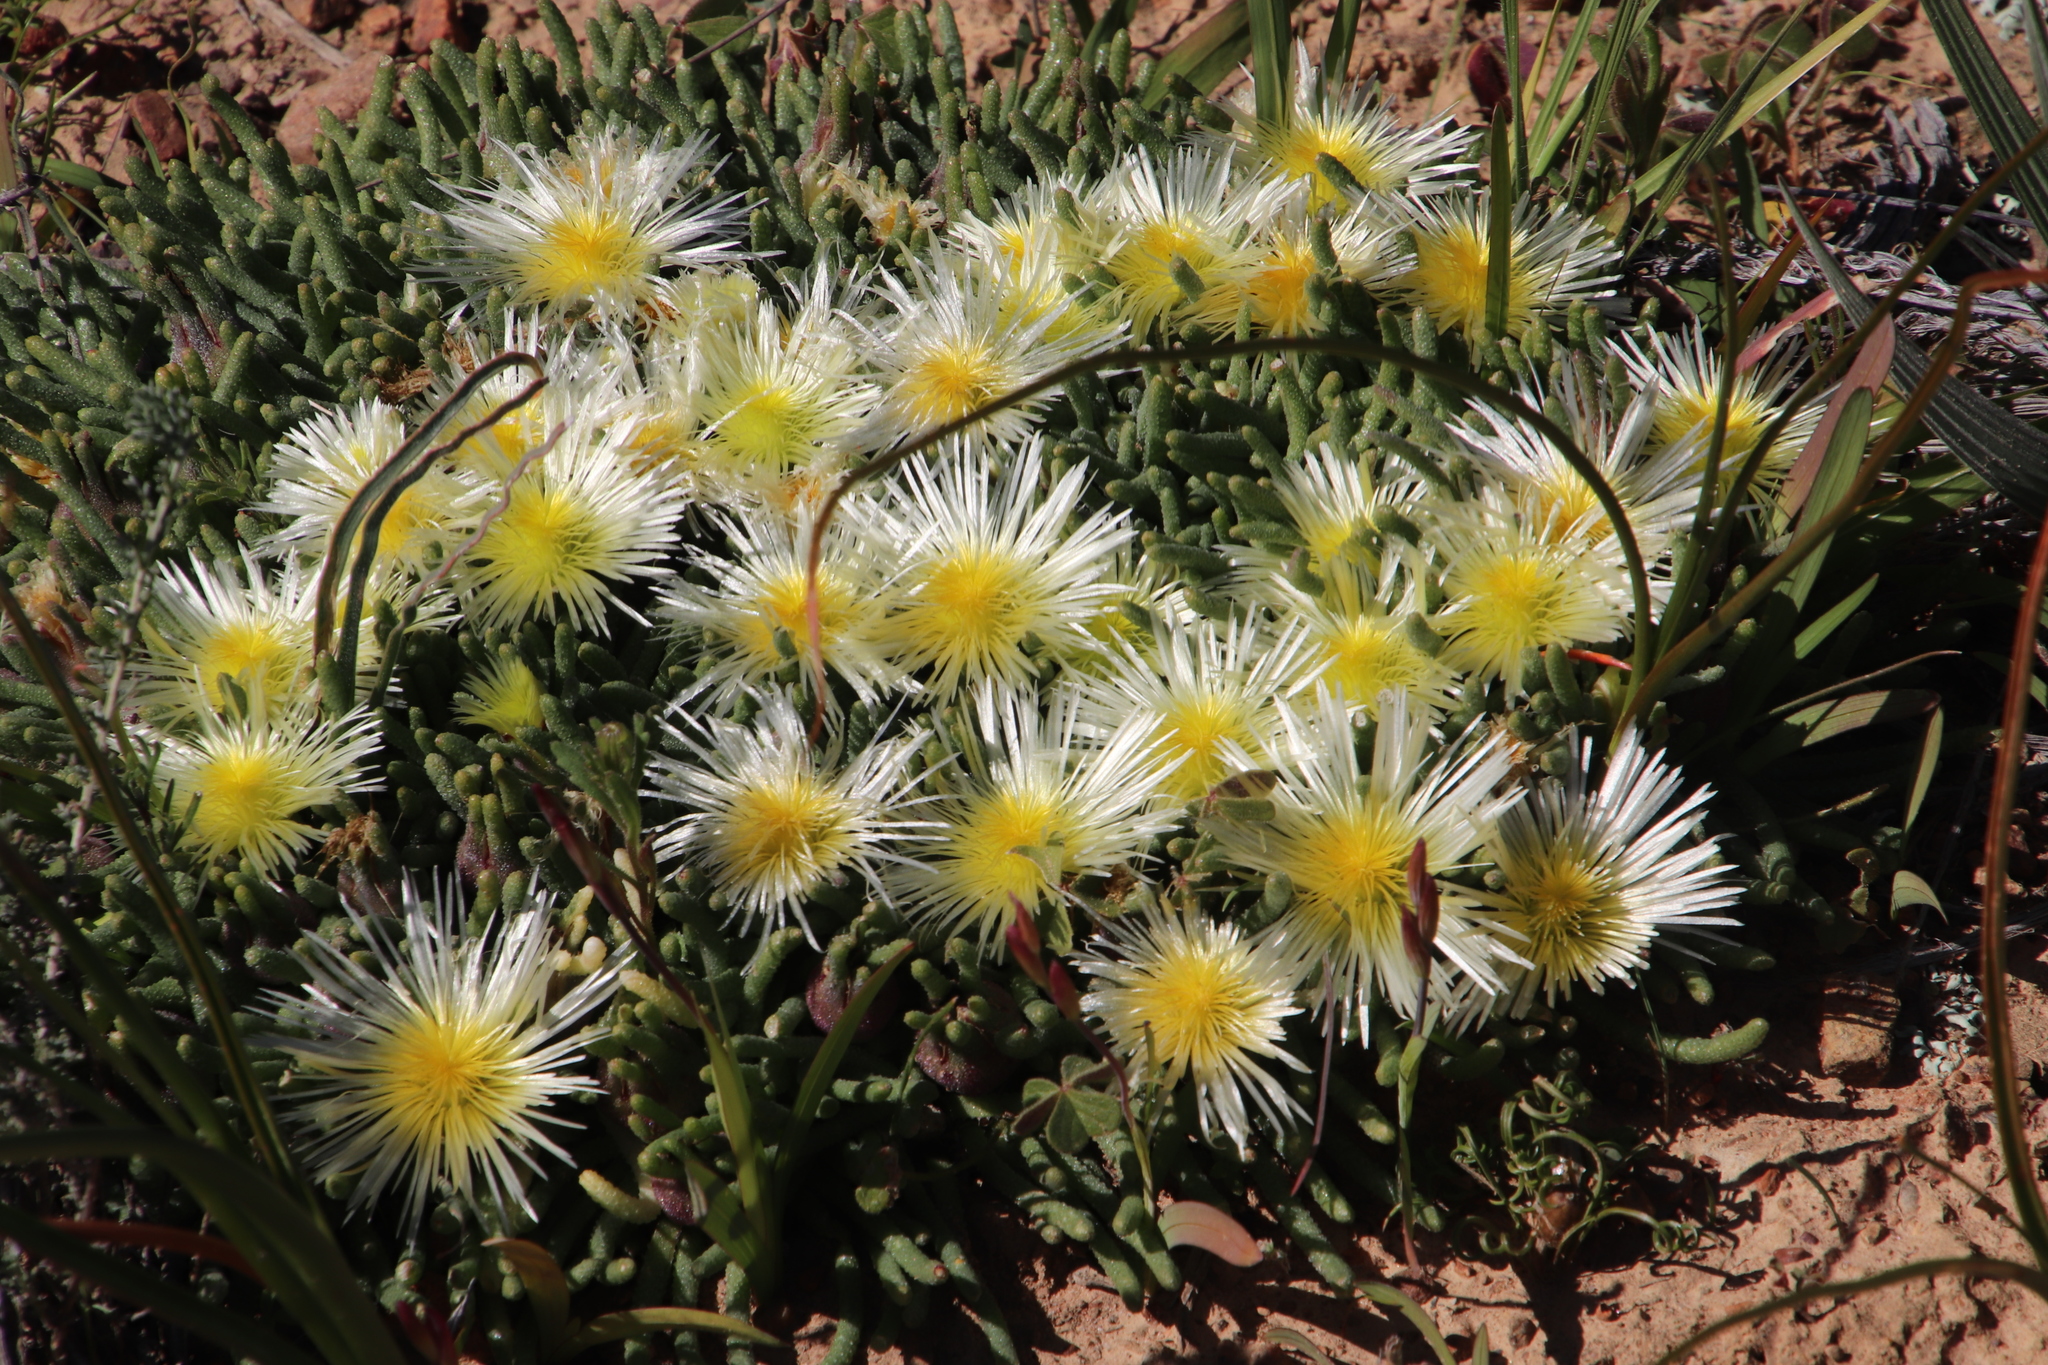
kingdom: Plantae
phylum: Tracheophyta
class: Magnoliopsida
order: Caryophyllales
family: Aizoaceae
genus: Mesembryanthemum
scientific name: Mesembryanthemum tenuiflorum
